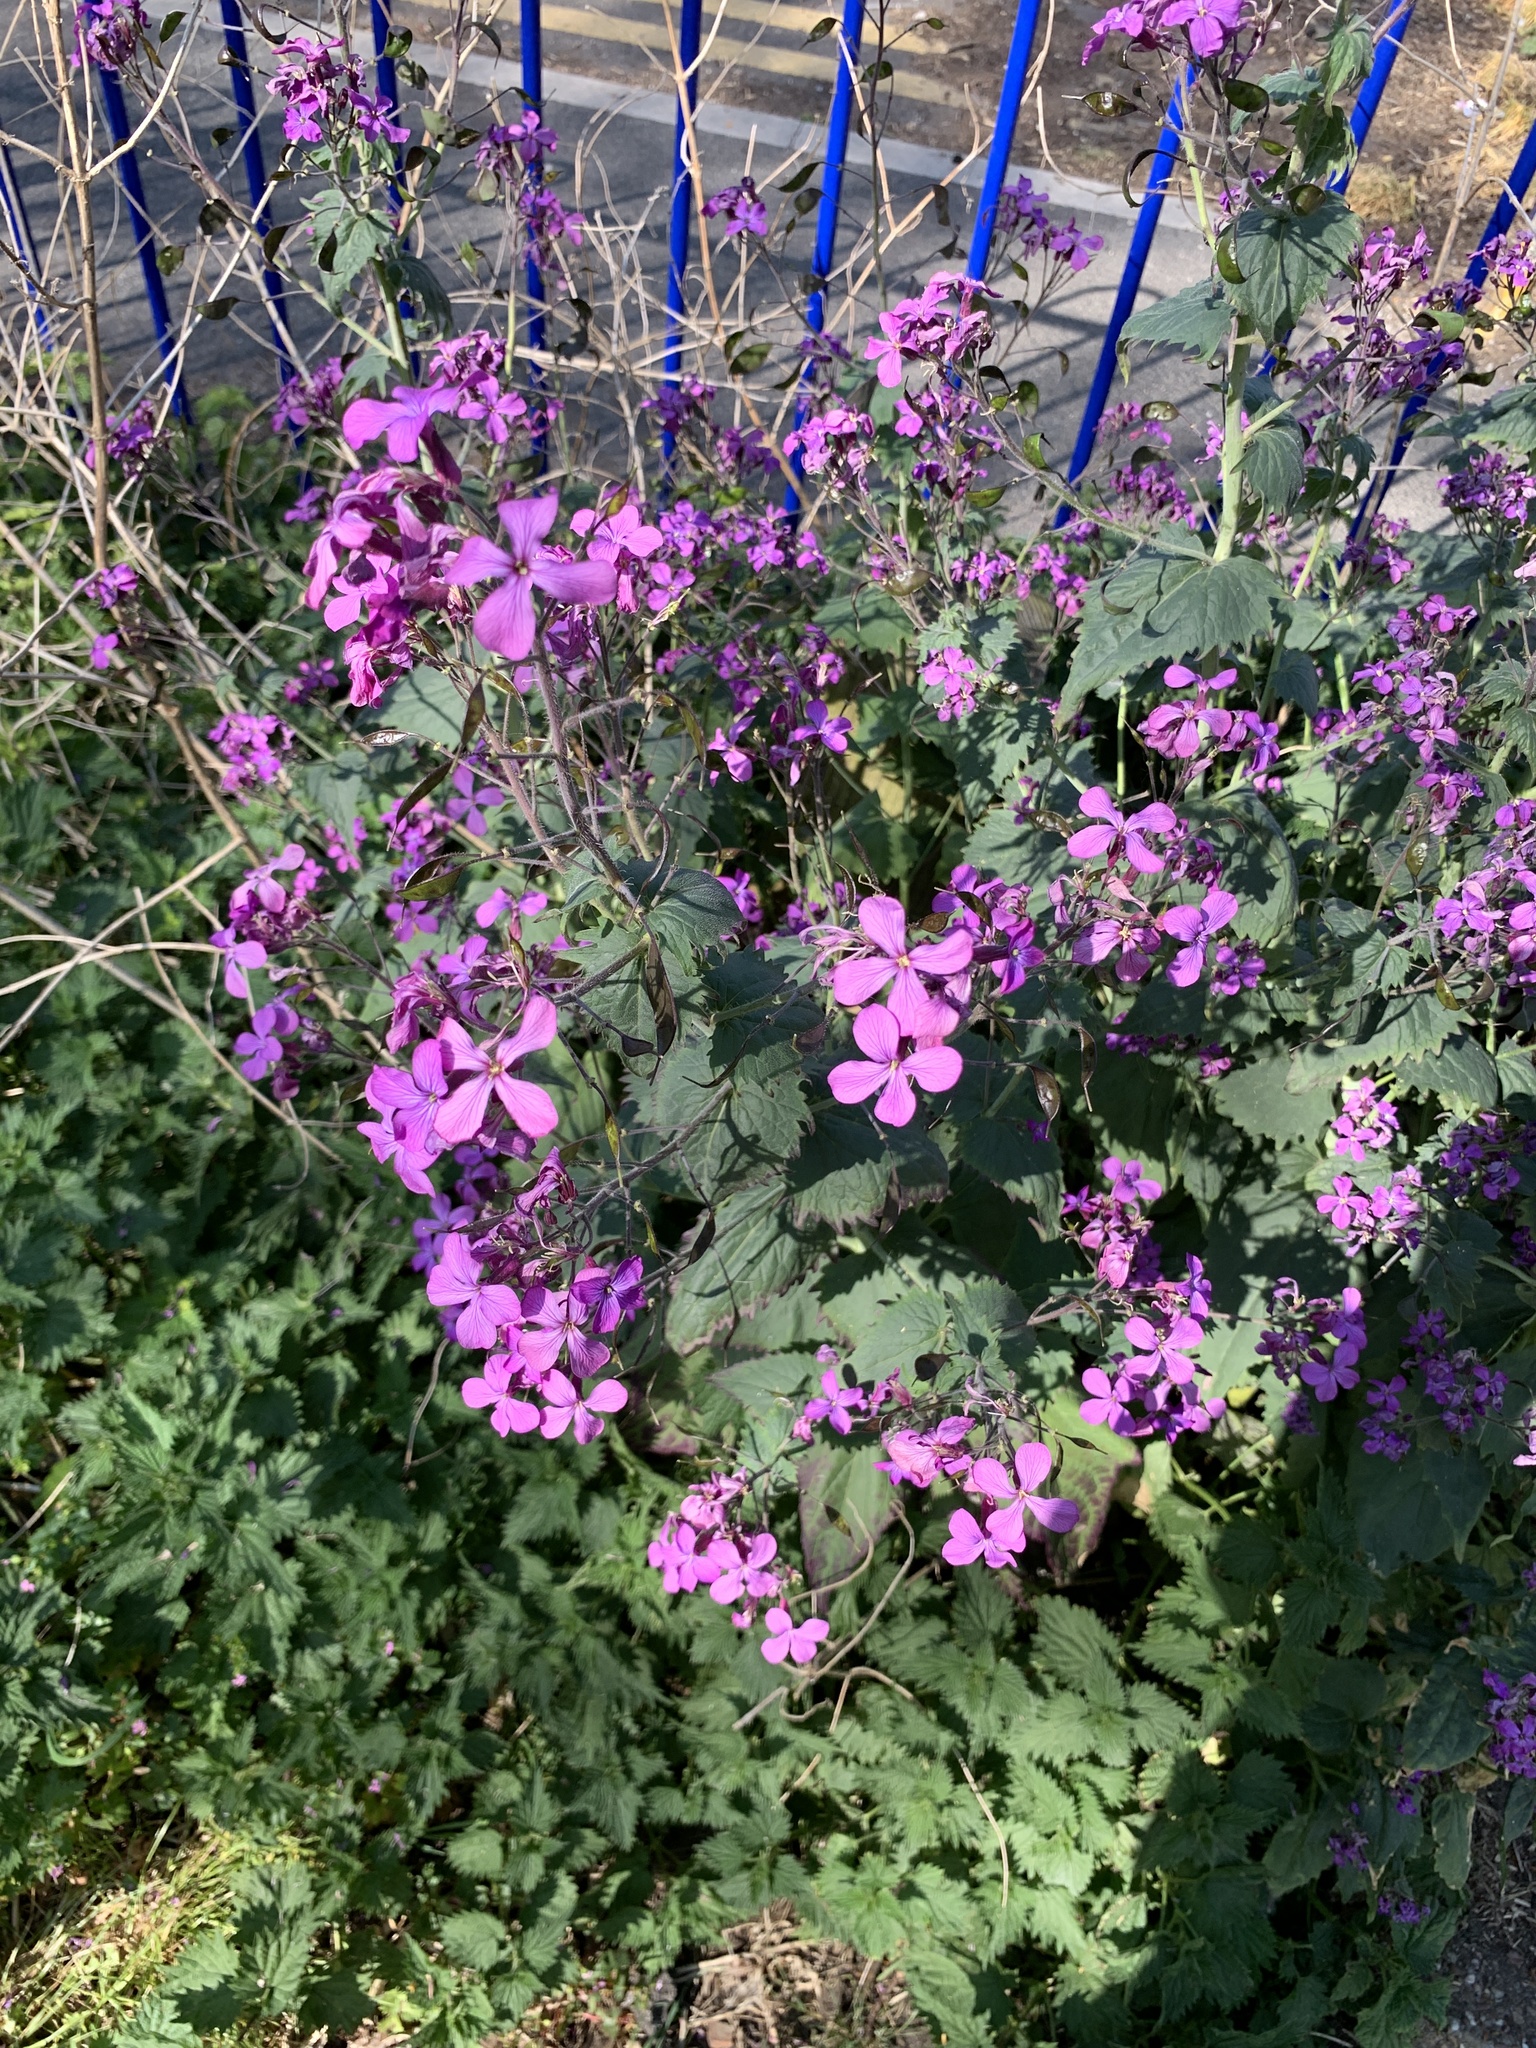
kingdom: Plantae
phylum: Tracheophyta
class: Magnoliopsida
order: Brassicales
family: Brassicaceae
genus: Lunaria
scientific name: Lunaria annua
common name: Honesty
